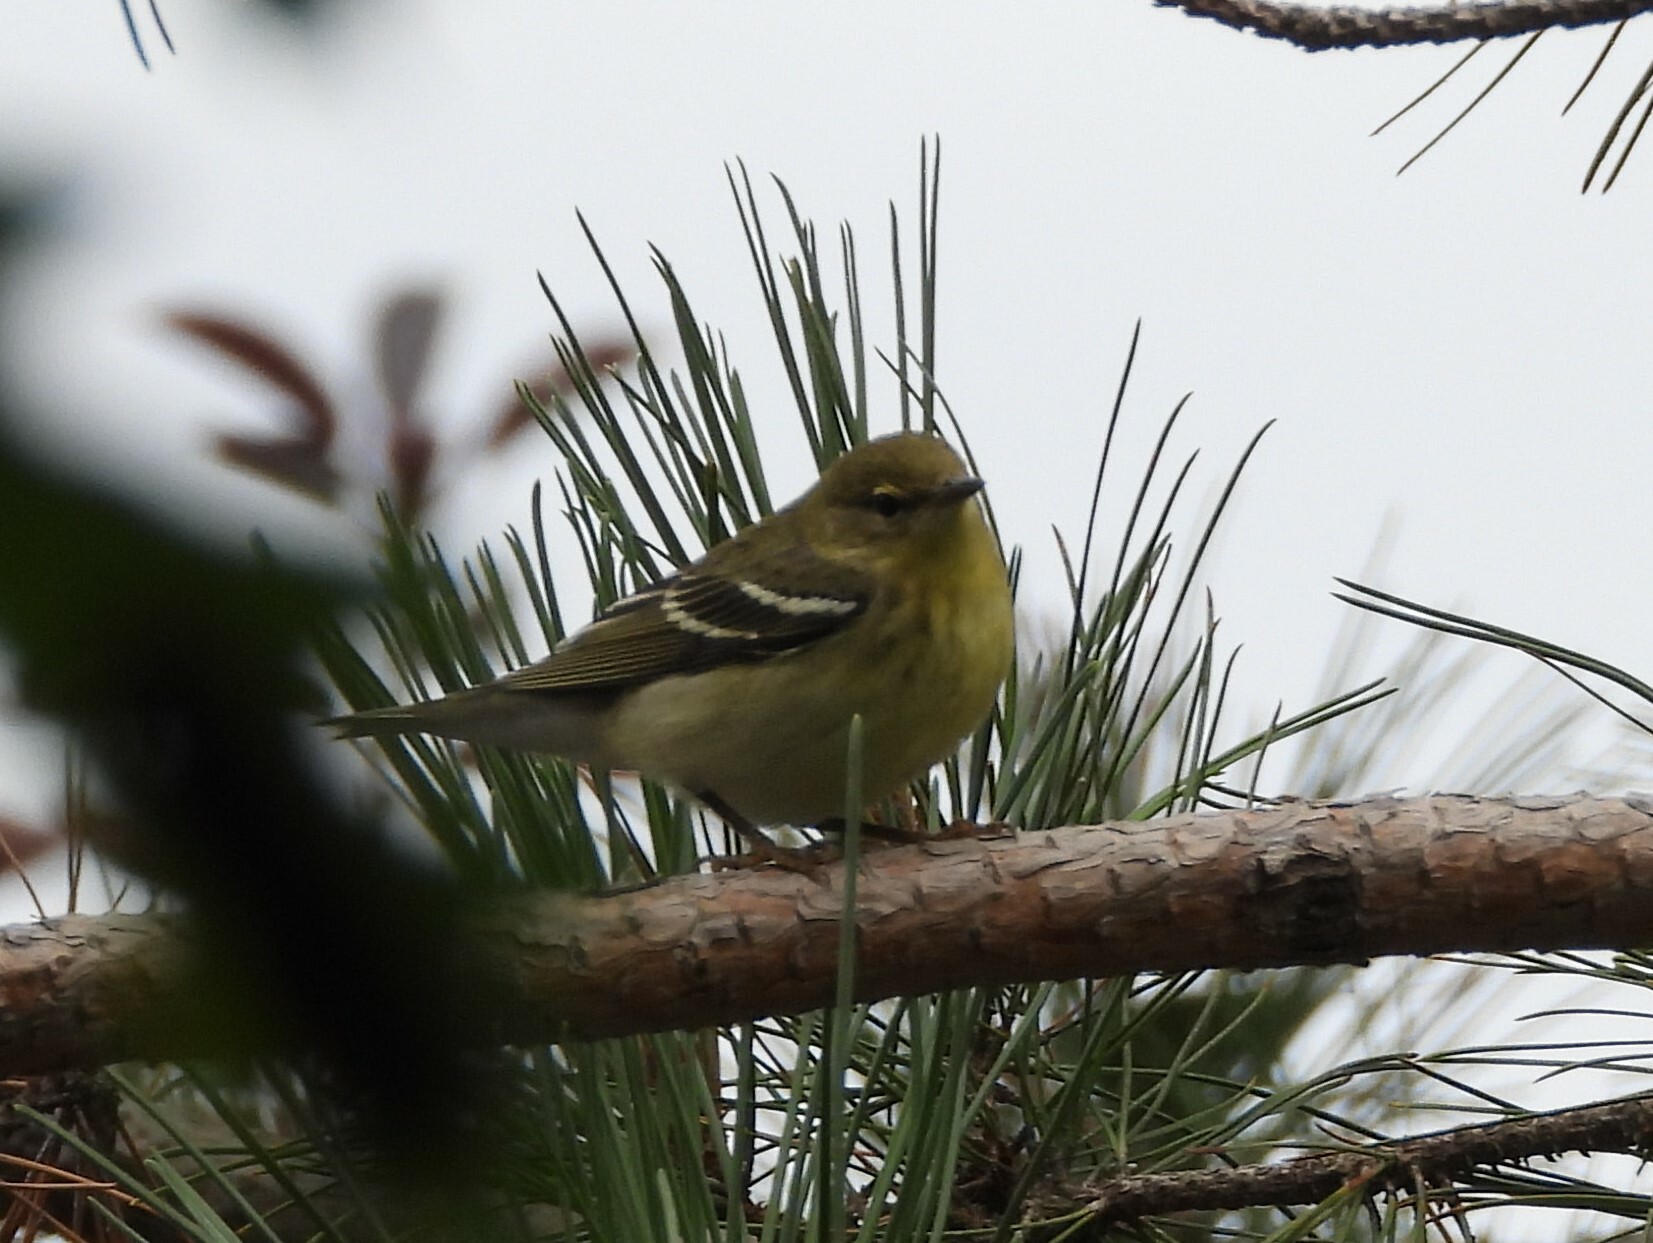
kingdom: Animalia
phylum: Chordata
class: Aves
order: Passeriformes
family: Parulidae
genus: Setophaga
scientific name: Setophaga striata
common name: Blackpoll warbler
